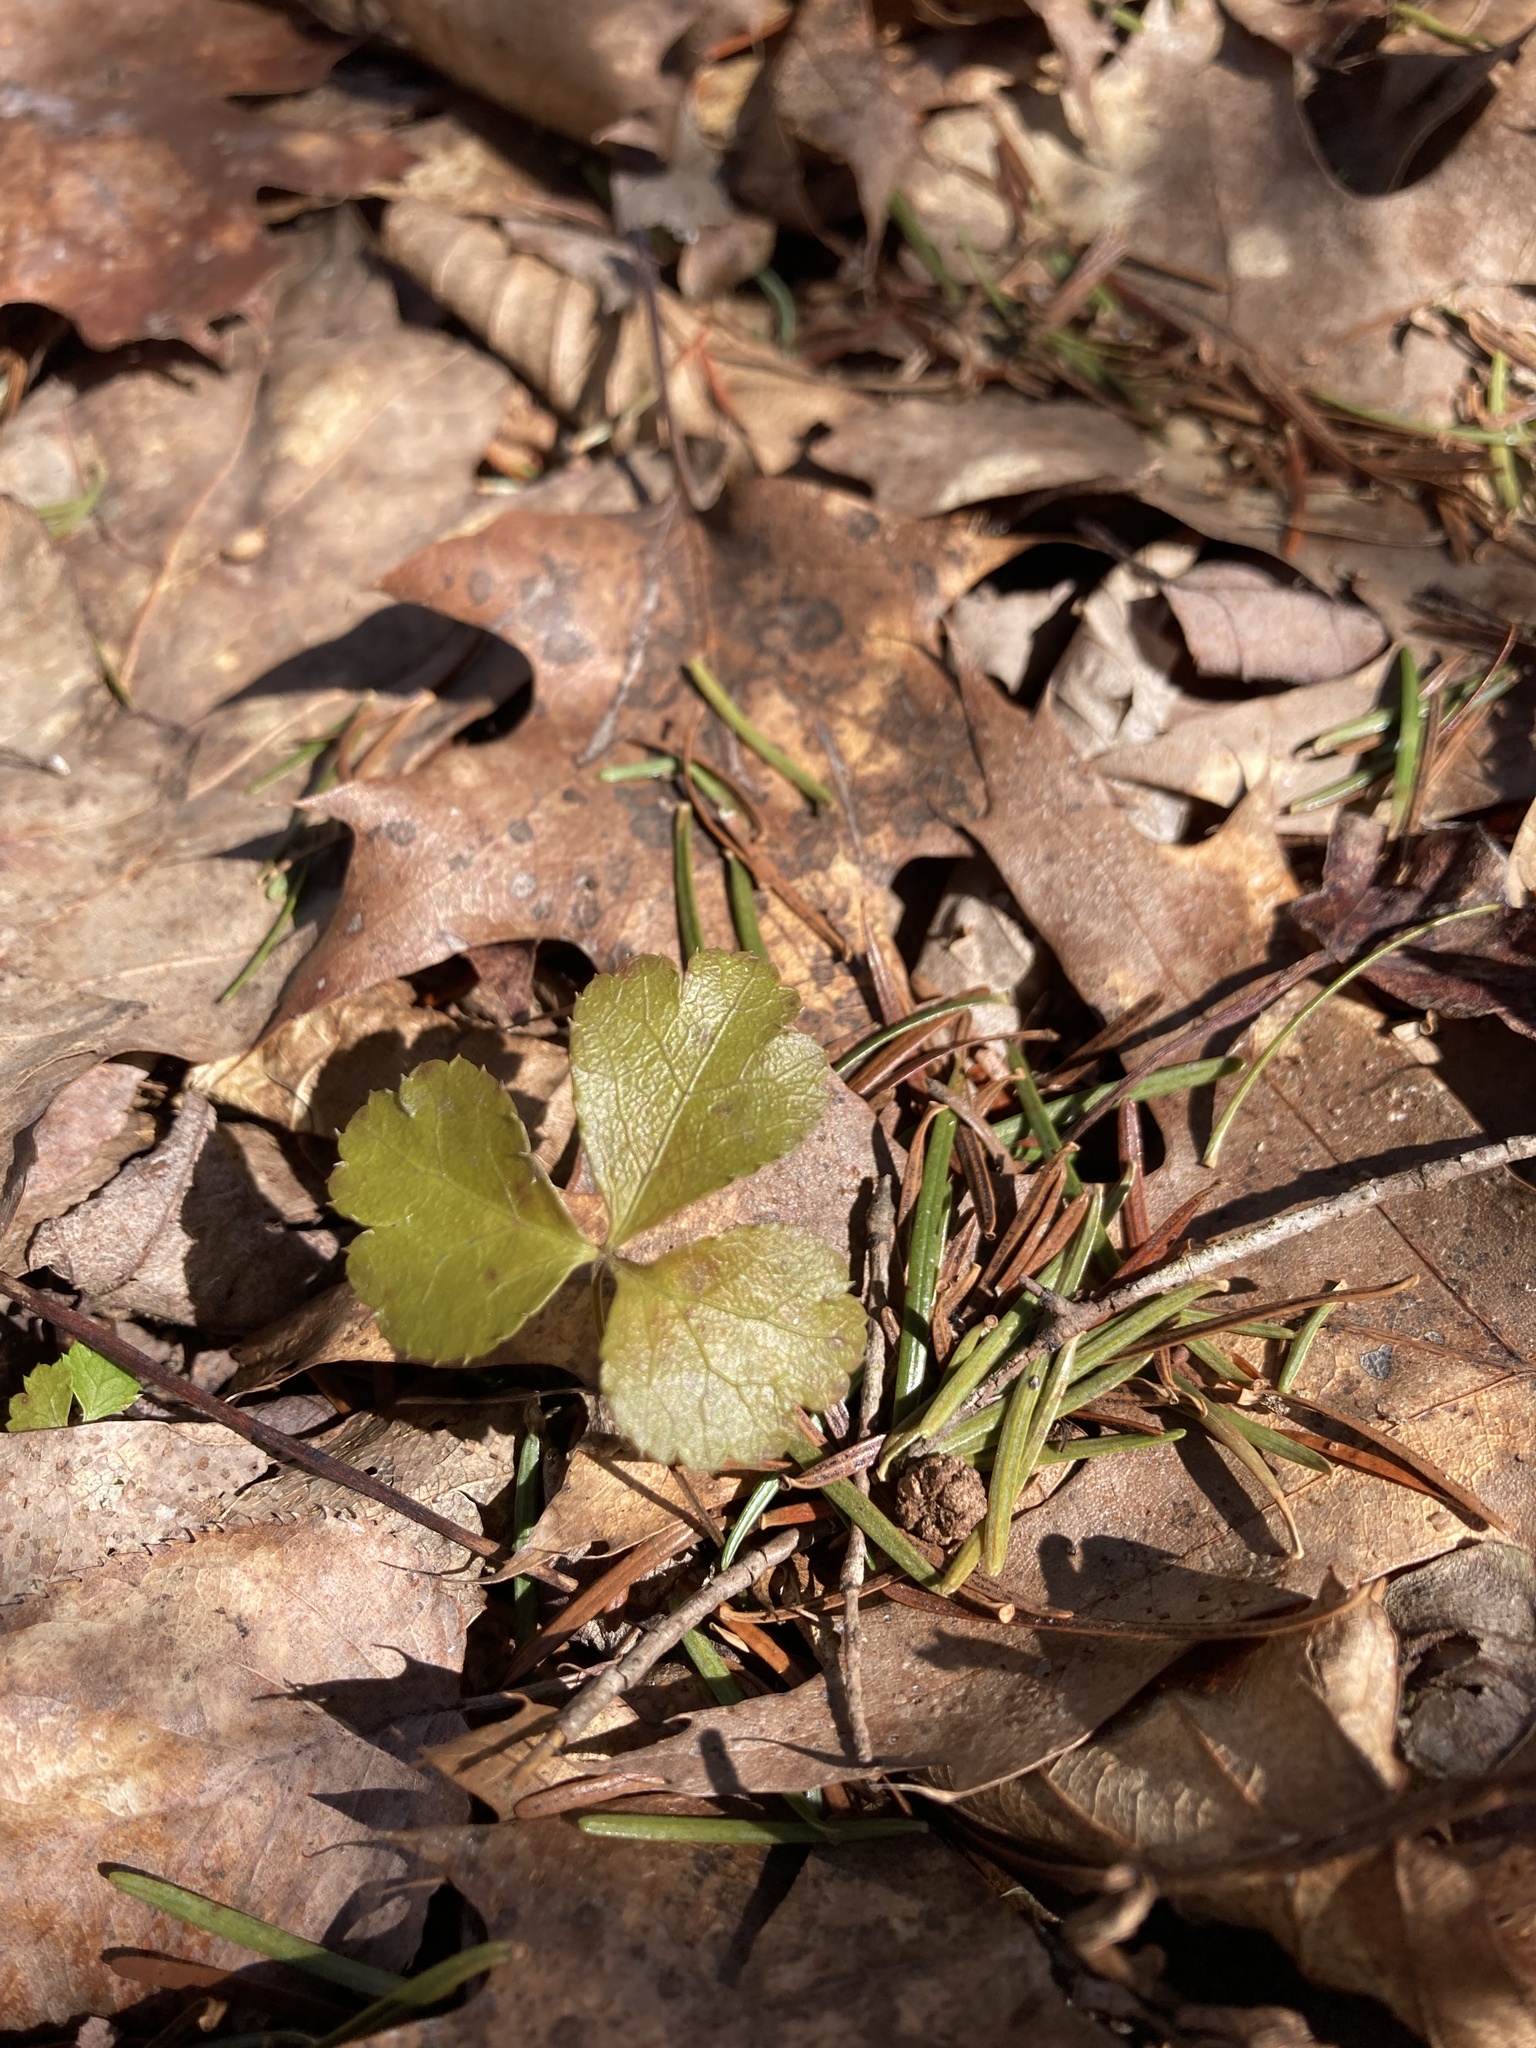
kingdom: Plantae
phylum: Tracheophyta
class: Magnoliopsida
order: Ranunculales
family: Ranunculaceae
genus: Coptis
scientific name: Coptis trifolia
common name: Canker-root
